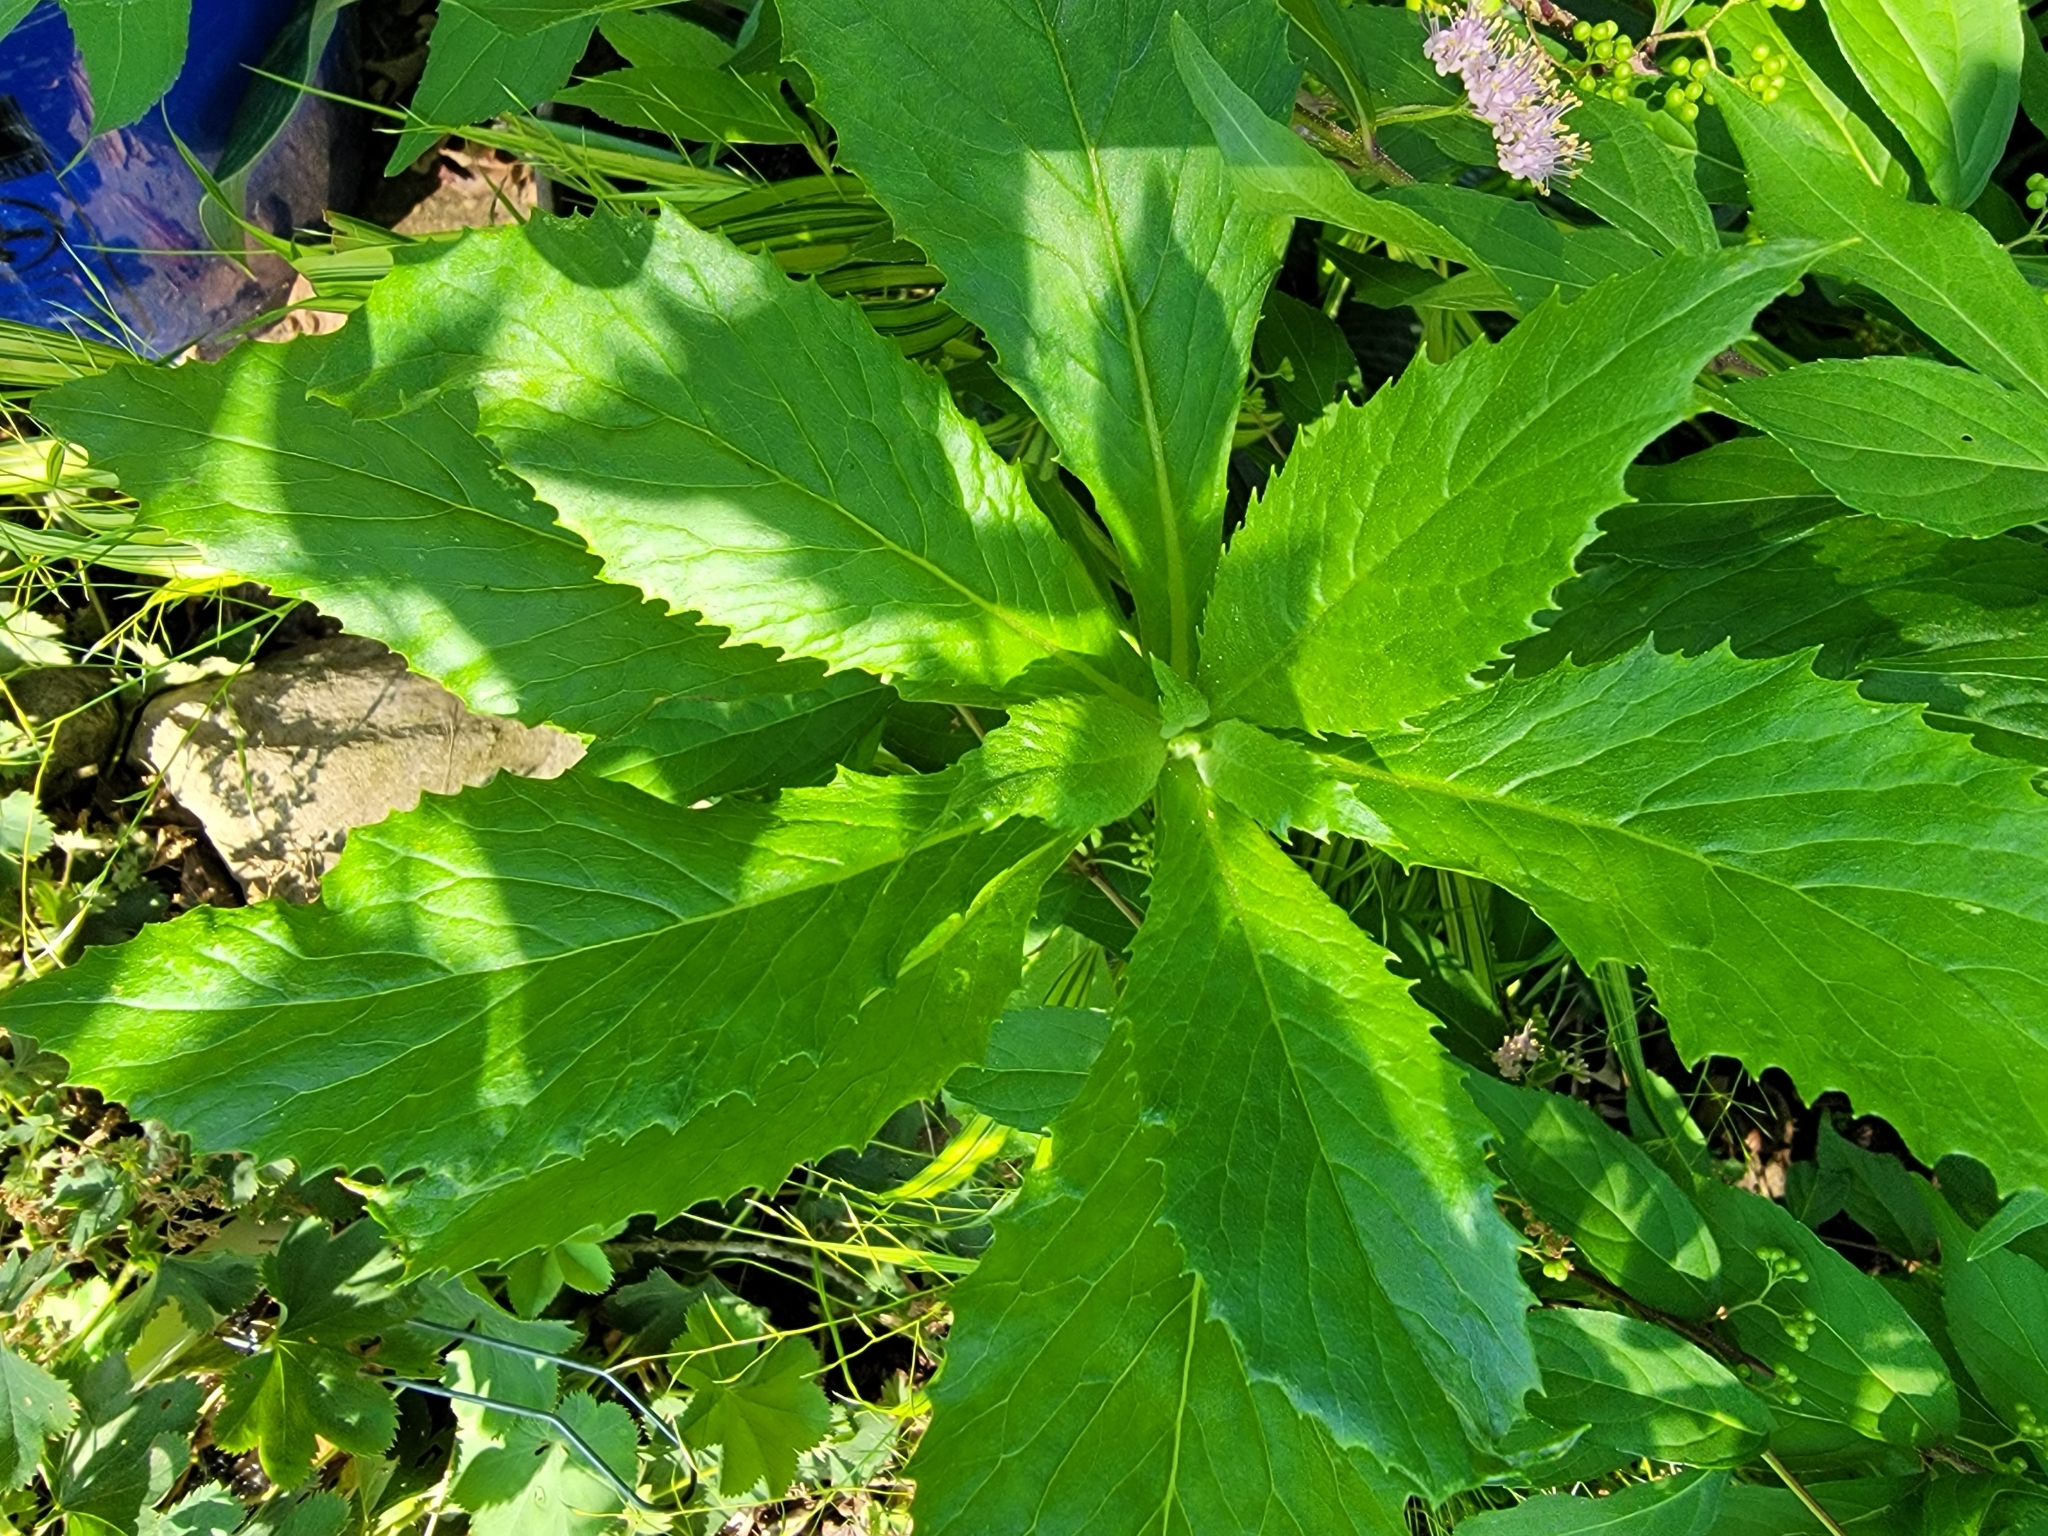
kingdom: Plantae
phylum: Tracheophyta
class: Magnoliopsida
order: Asterales
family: Asteraceae
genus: Erechtites
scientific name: Erechtites hieraciifolius
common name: American burnweed
